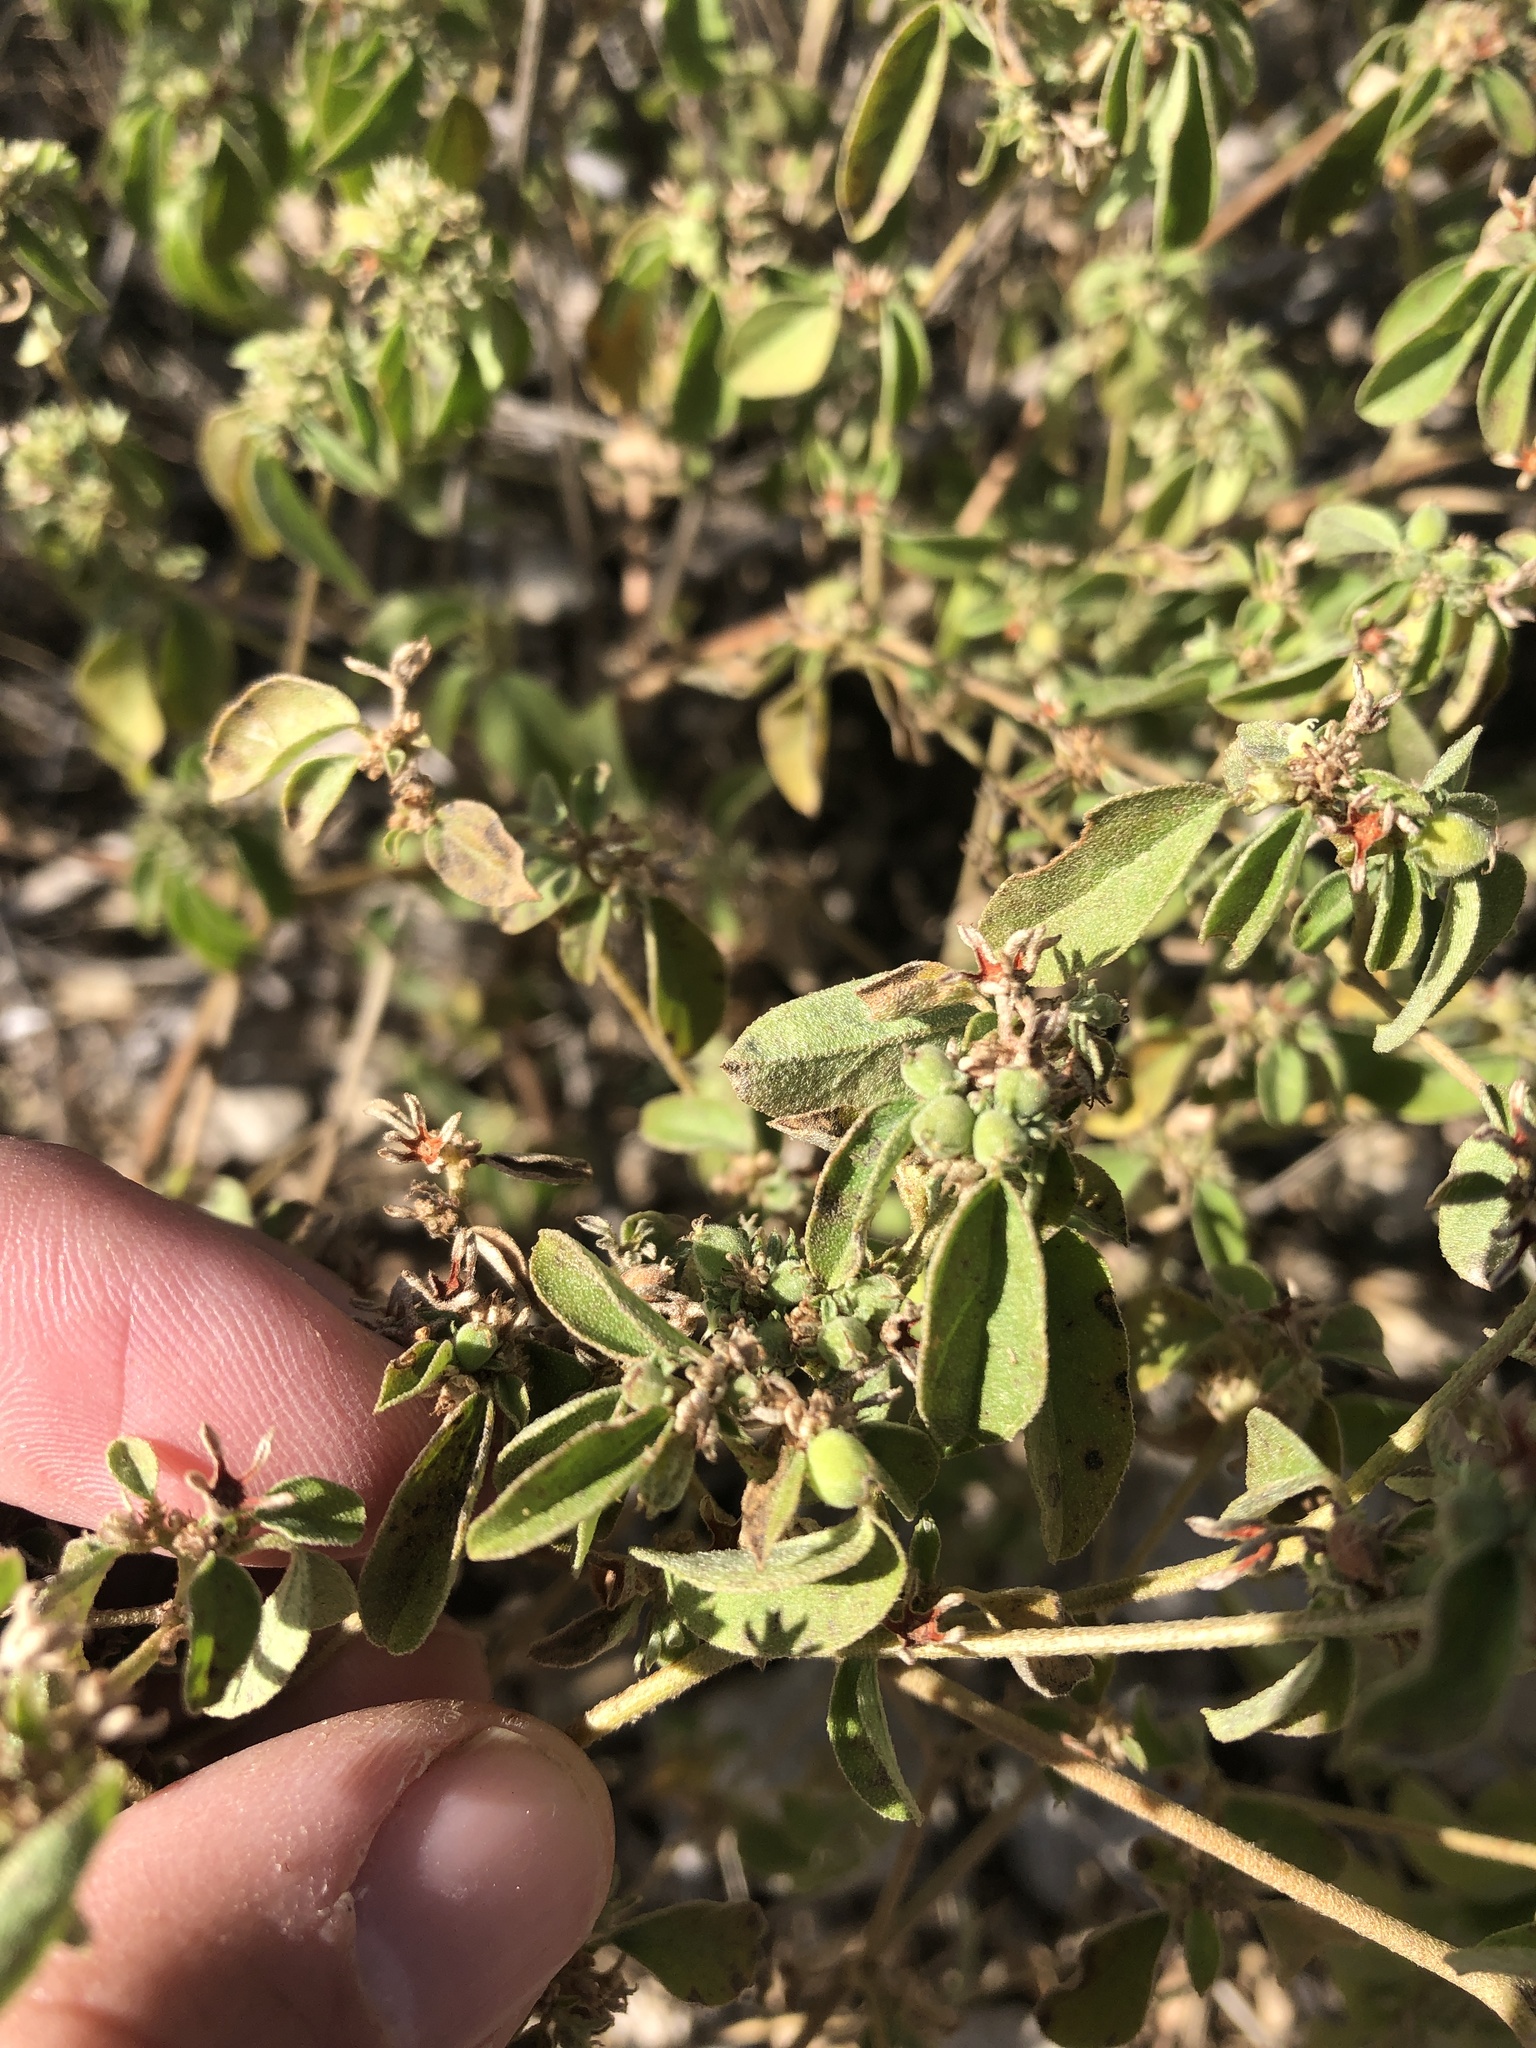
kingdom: Plantae
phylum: Tracheophyta
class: Magnoliopsida
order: Malpighiales
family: Euphorbiaceae
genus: Croton
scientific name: Croton monanthogynus
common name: One-seed croton
